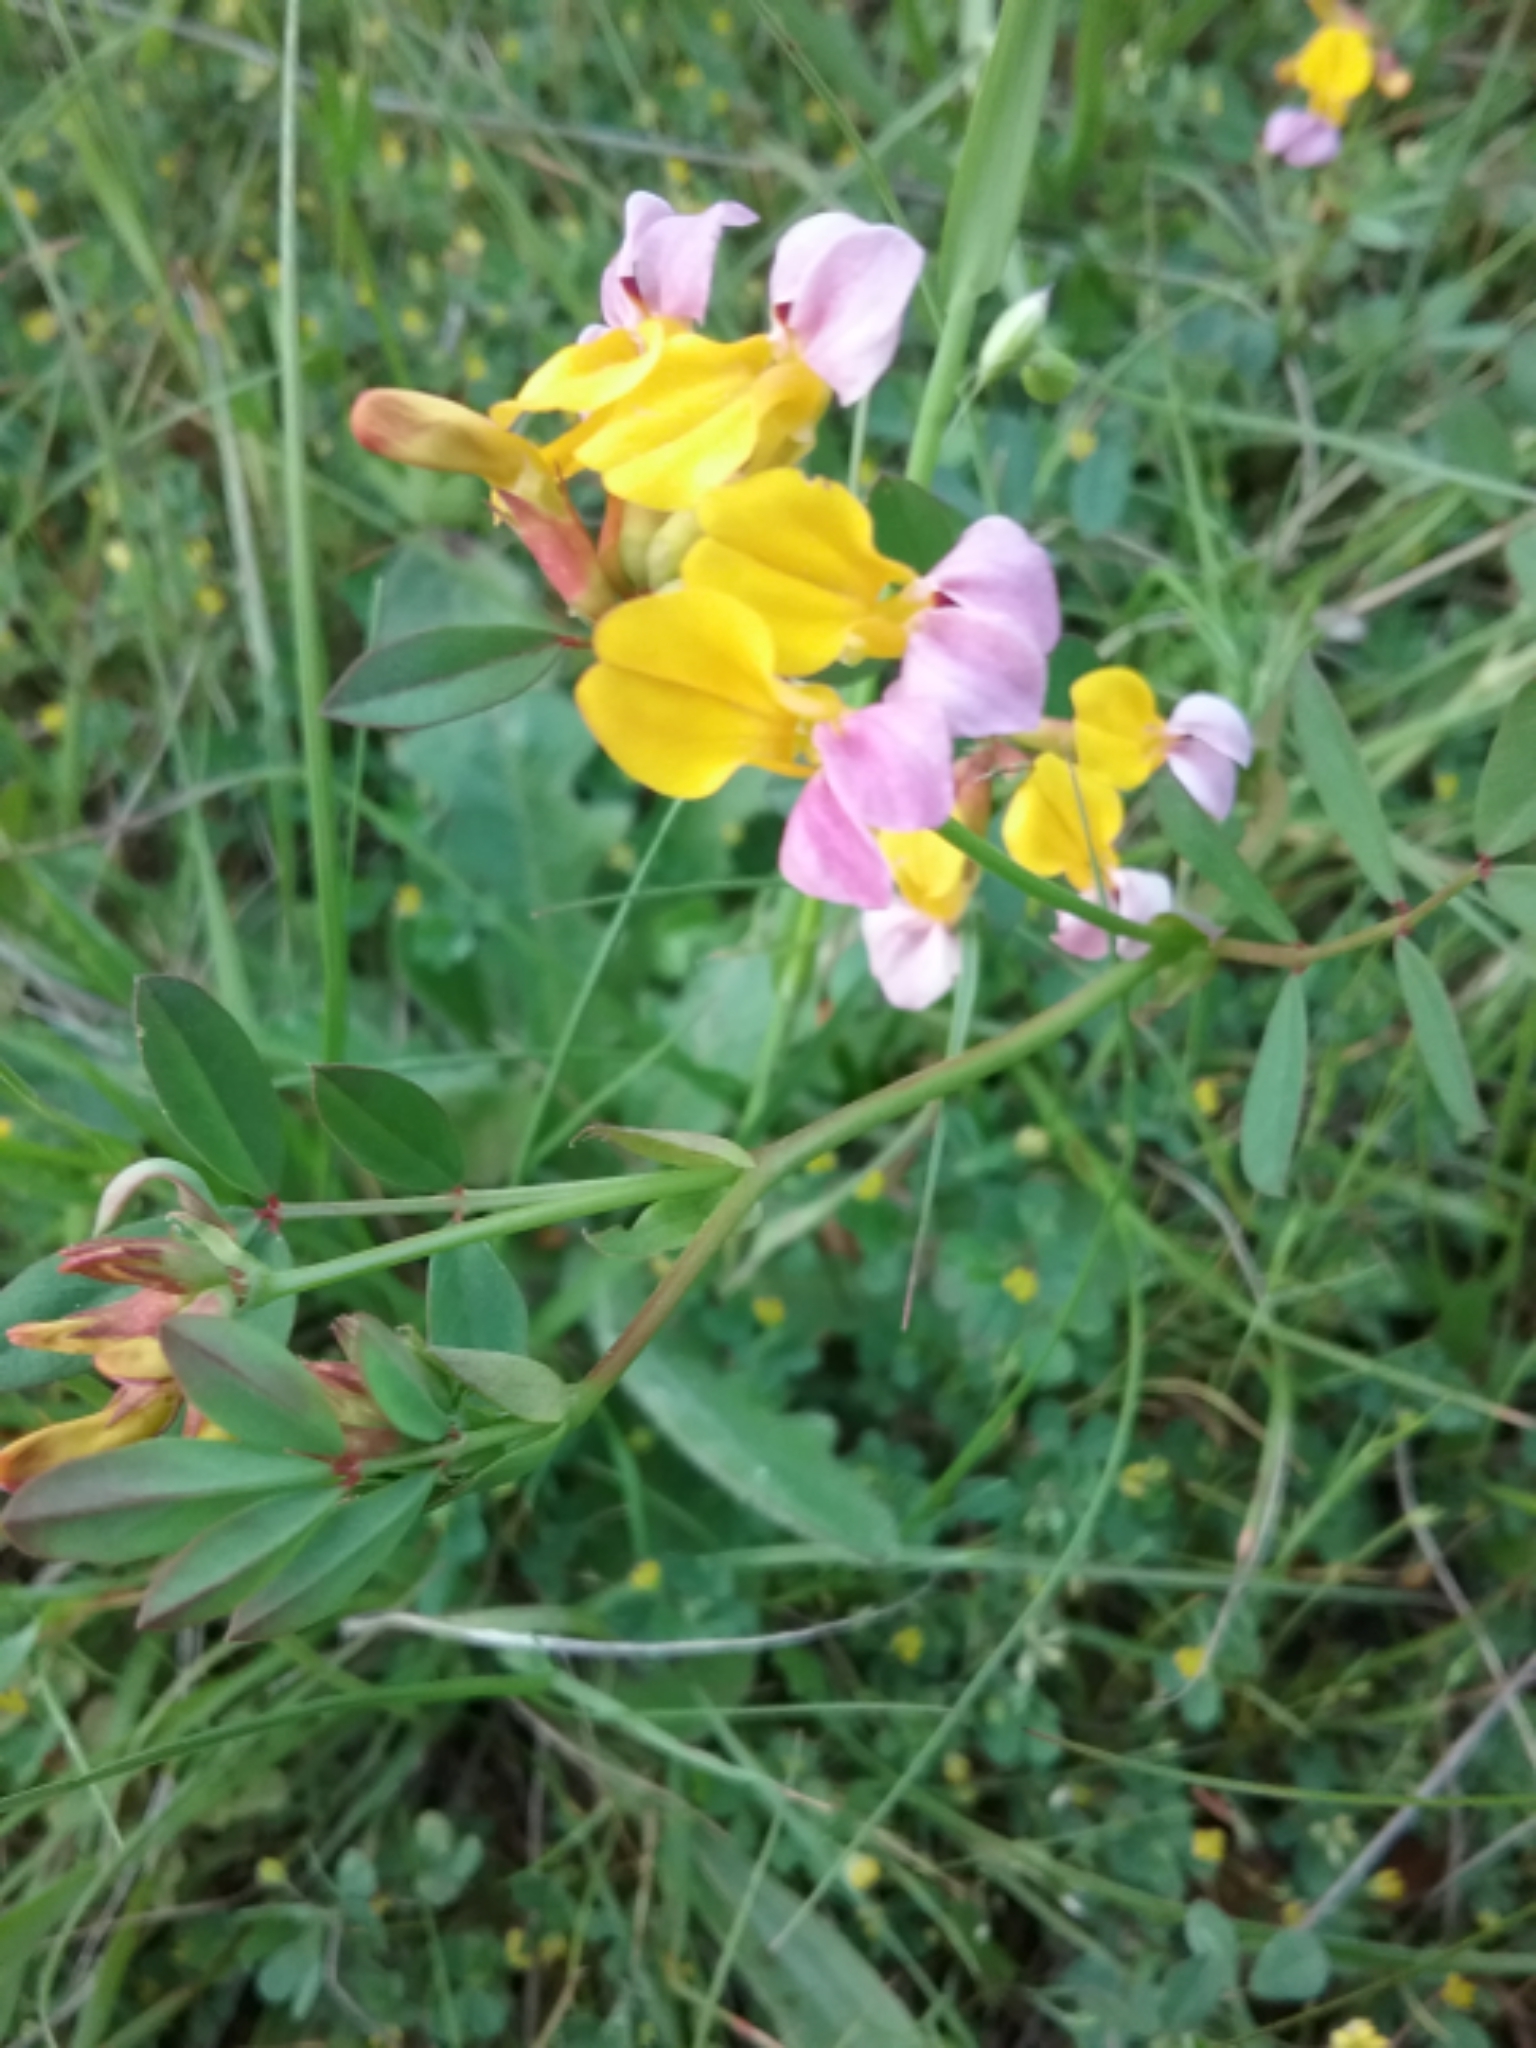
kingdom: Plantae
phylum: Tracheophyta
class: Magnoliopsida
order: Fabales
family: Fabaceae
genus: Hosackia
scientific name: Hosackia gracilis
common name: Seaside bird's-foot lotus
